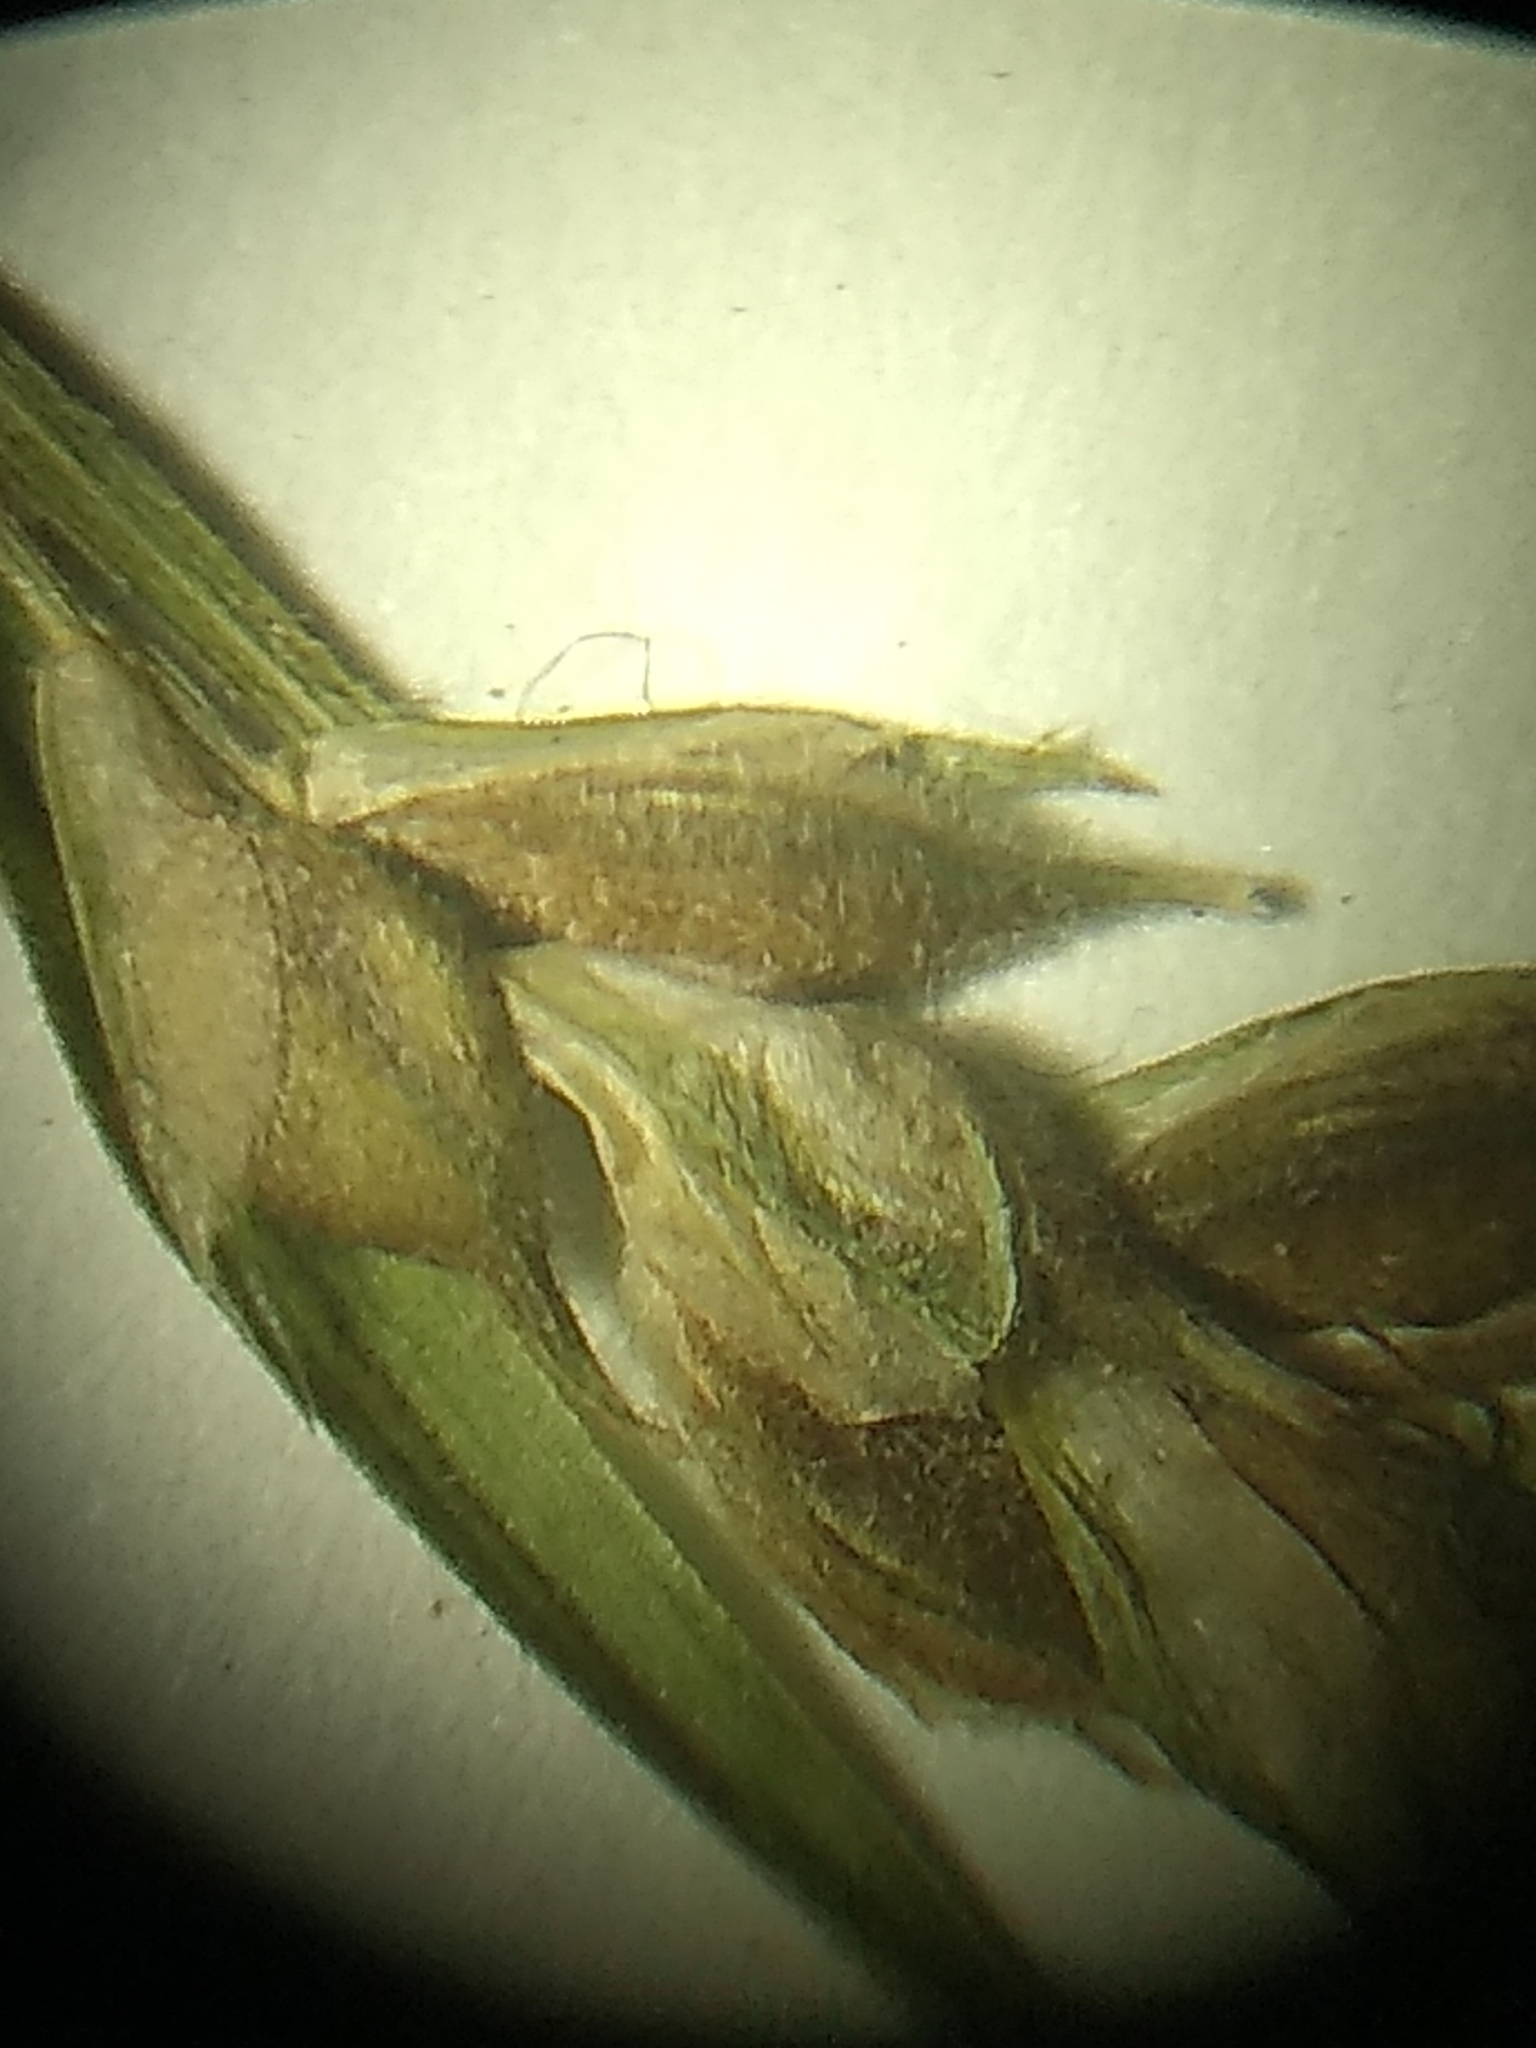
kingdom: Plantae
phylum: Tracheophyta
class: Liliopsida
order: Poales
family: Cyperaceae
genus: Carex
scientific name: Carex hirtifolia
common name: Hairy sedge
